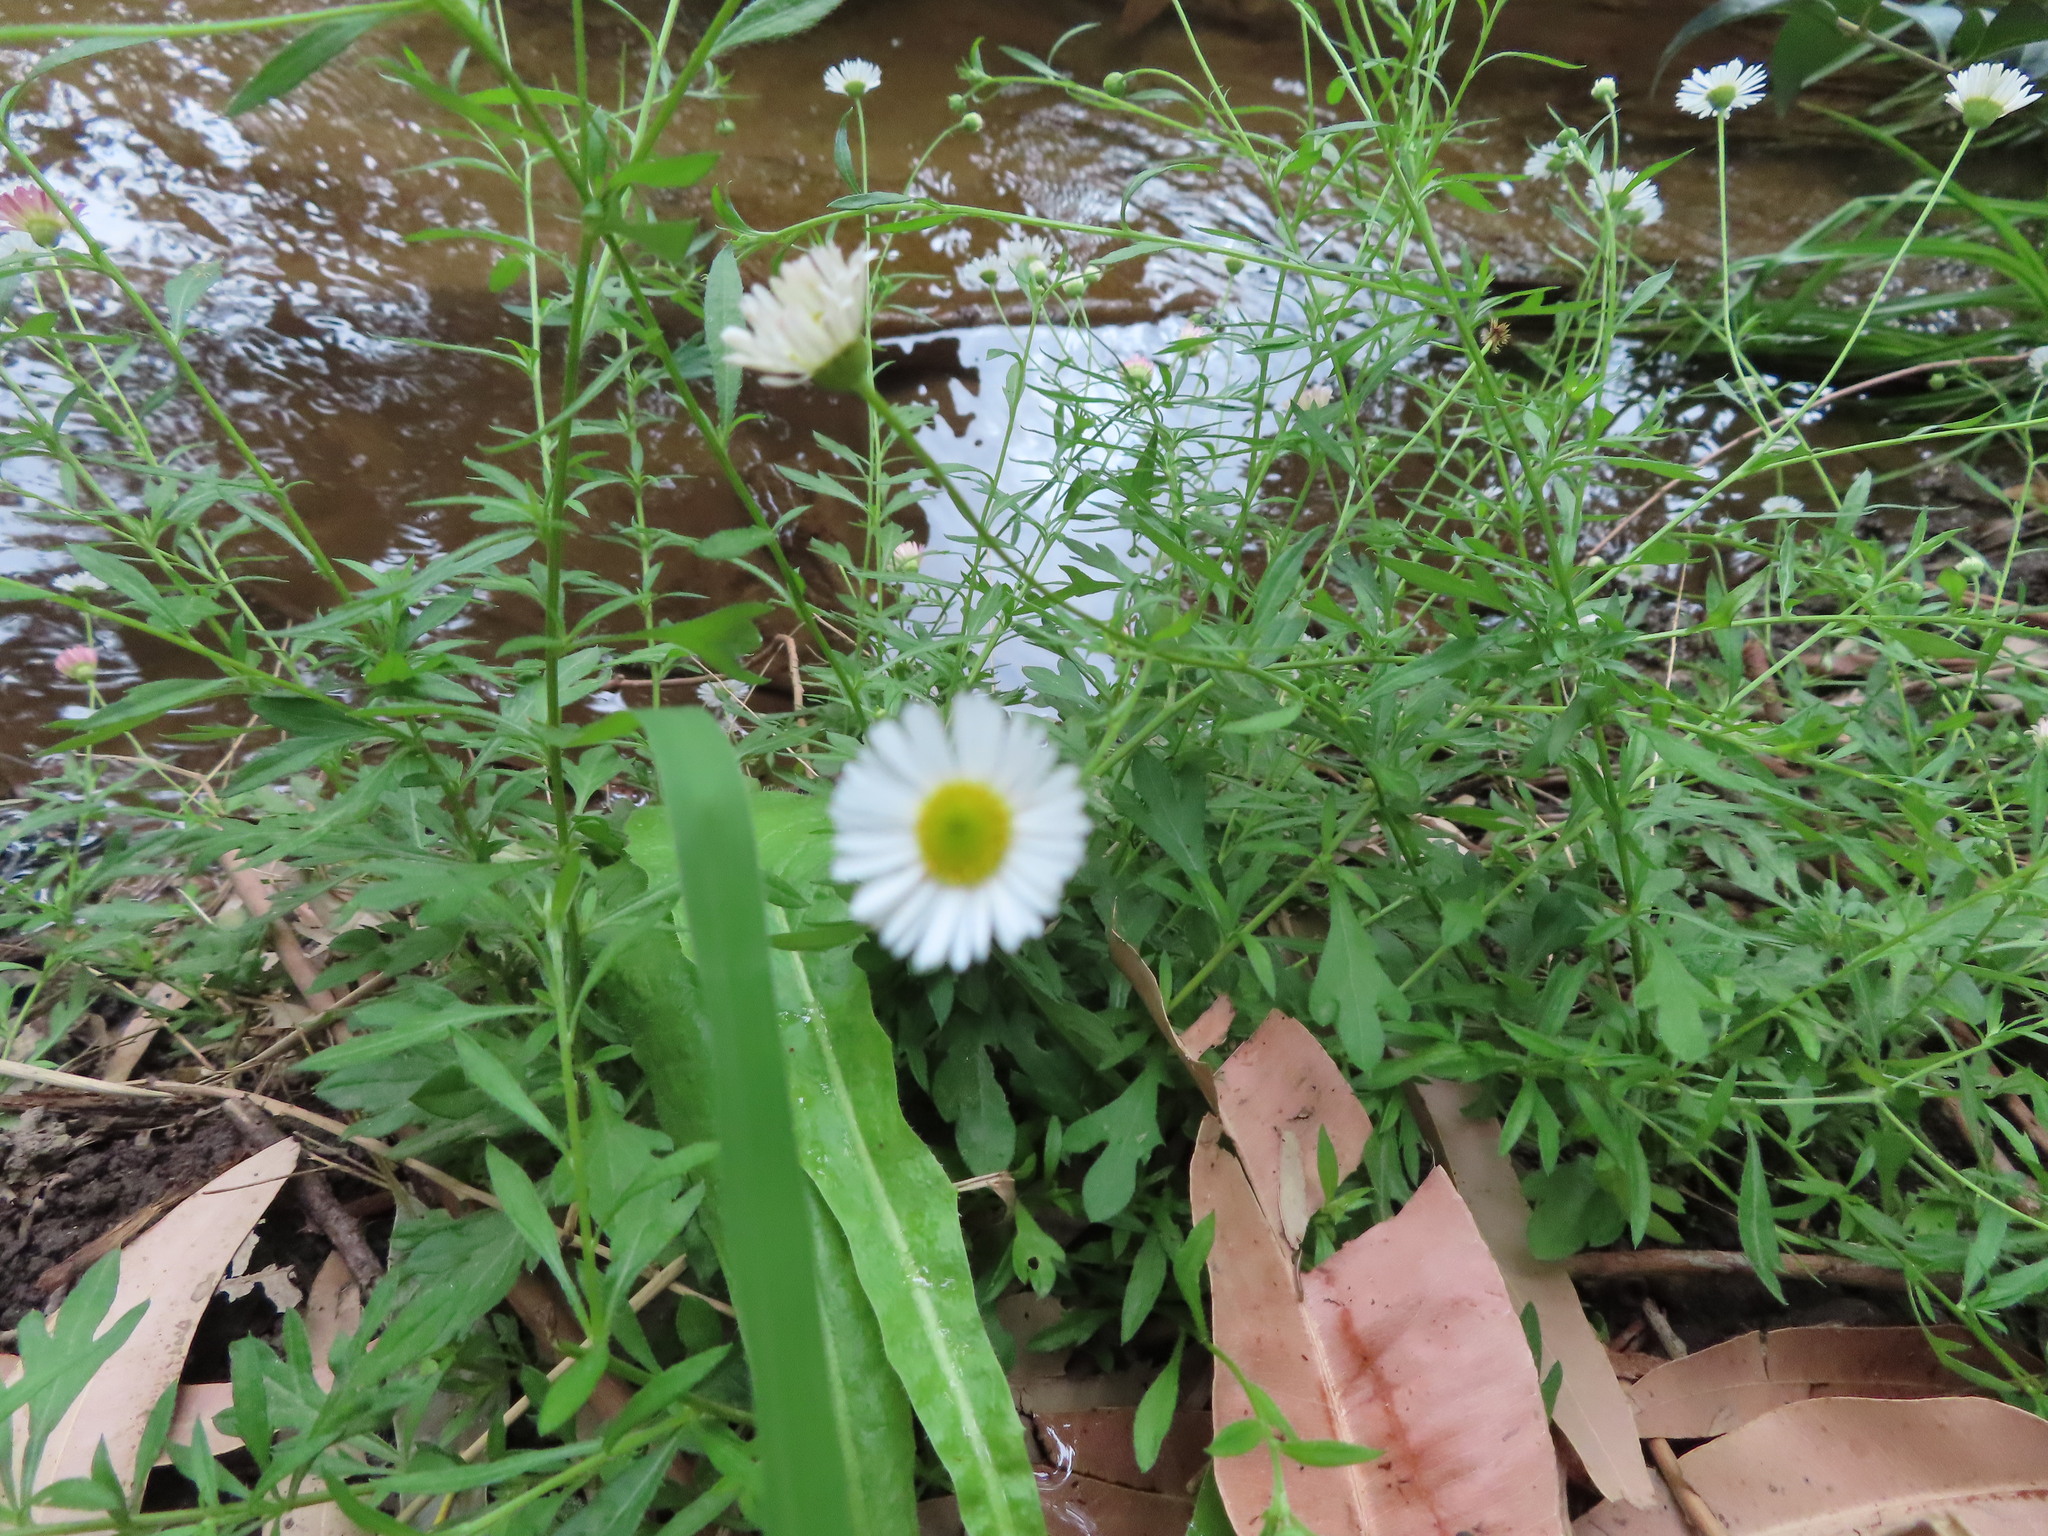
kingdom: Plantae
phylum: Tracheophyta
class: Magnoliopsida
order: Asterales
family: Asteraceae
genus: Erigeron
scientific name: Erigeron karvinskianus
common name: Mexican fleabane
